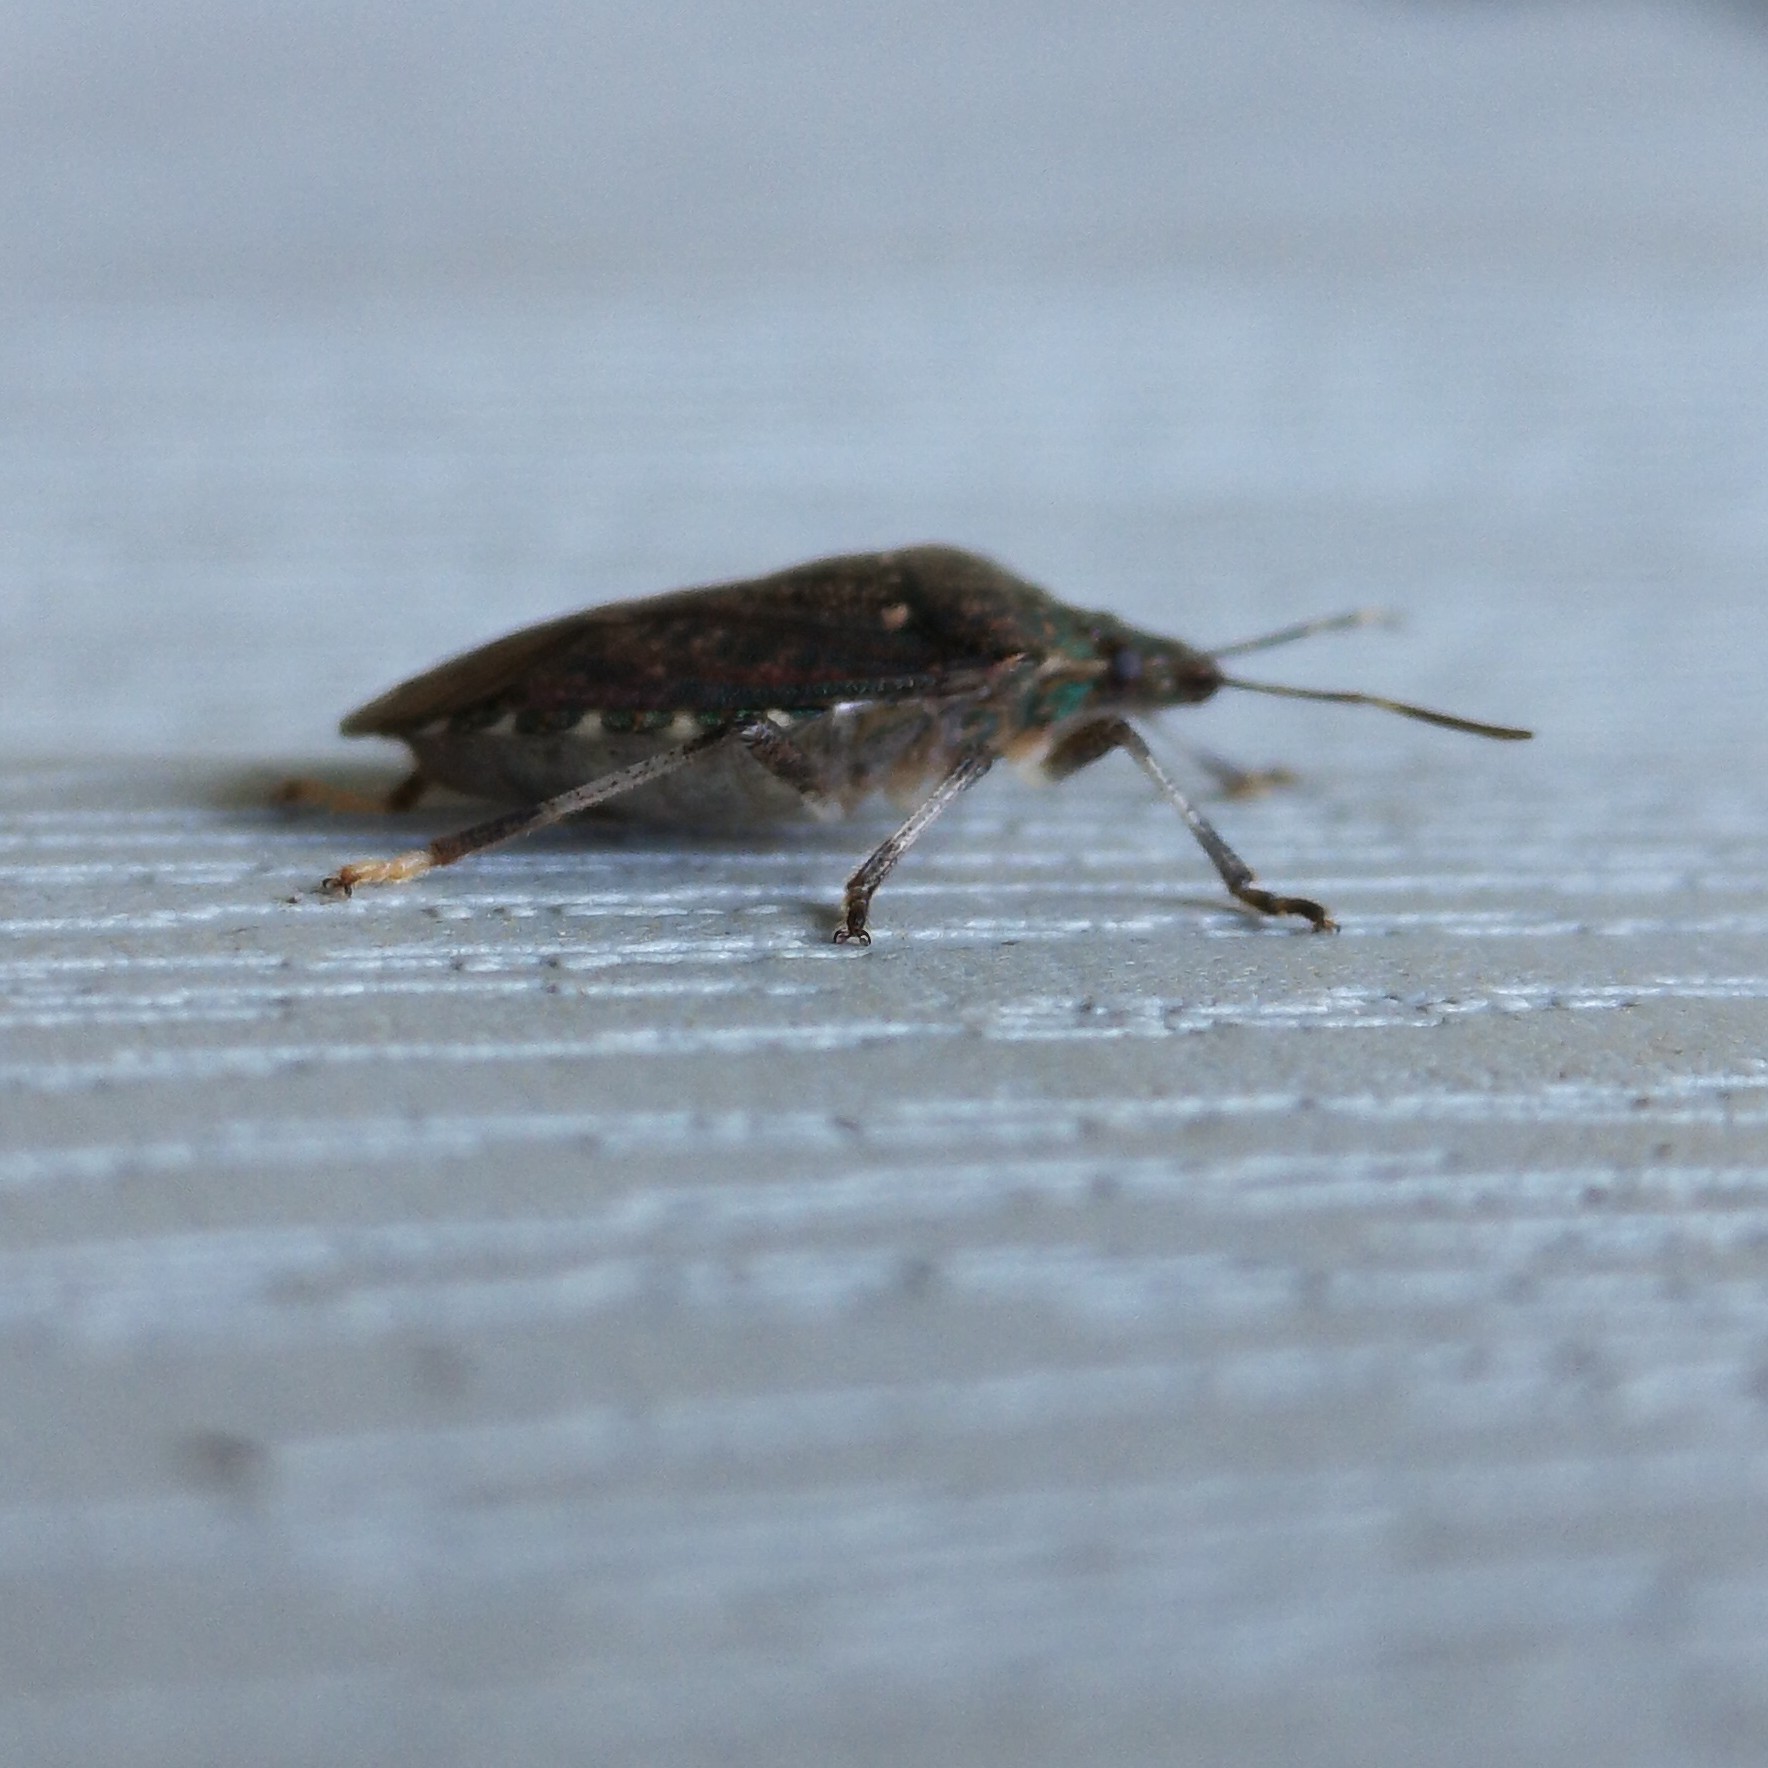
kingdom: Animalia
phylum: Arthropoda
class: Insecta
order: Hemiptera
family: Pentatomidae
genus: Halyomorpha
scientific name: Halyomorpha halys
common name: Brown marmorated stink bug
